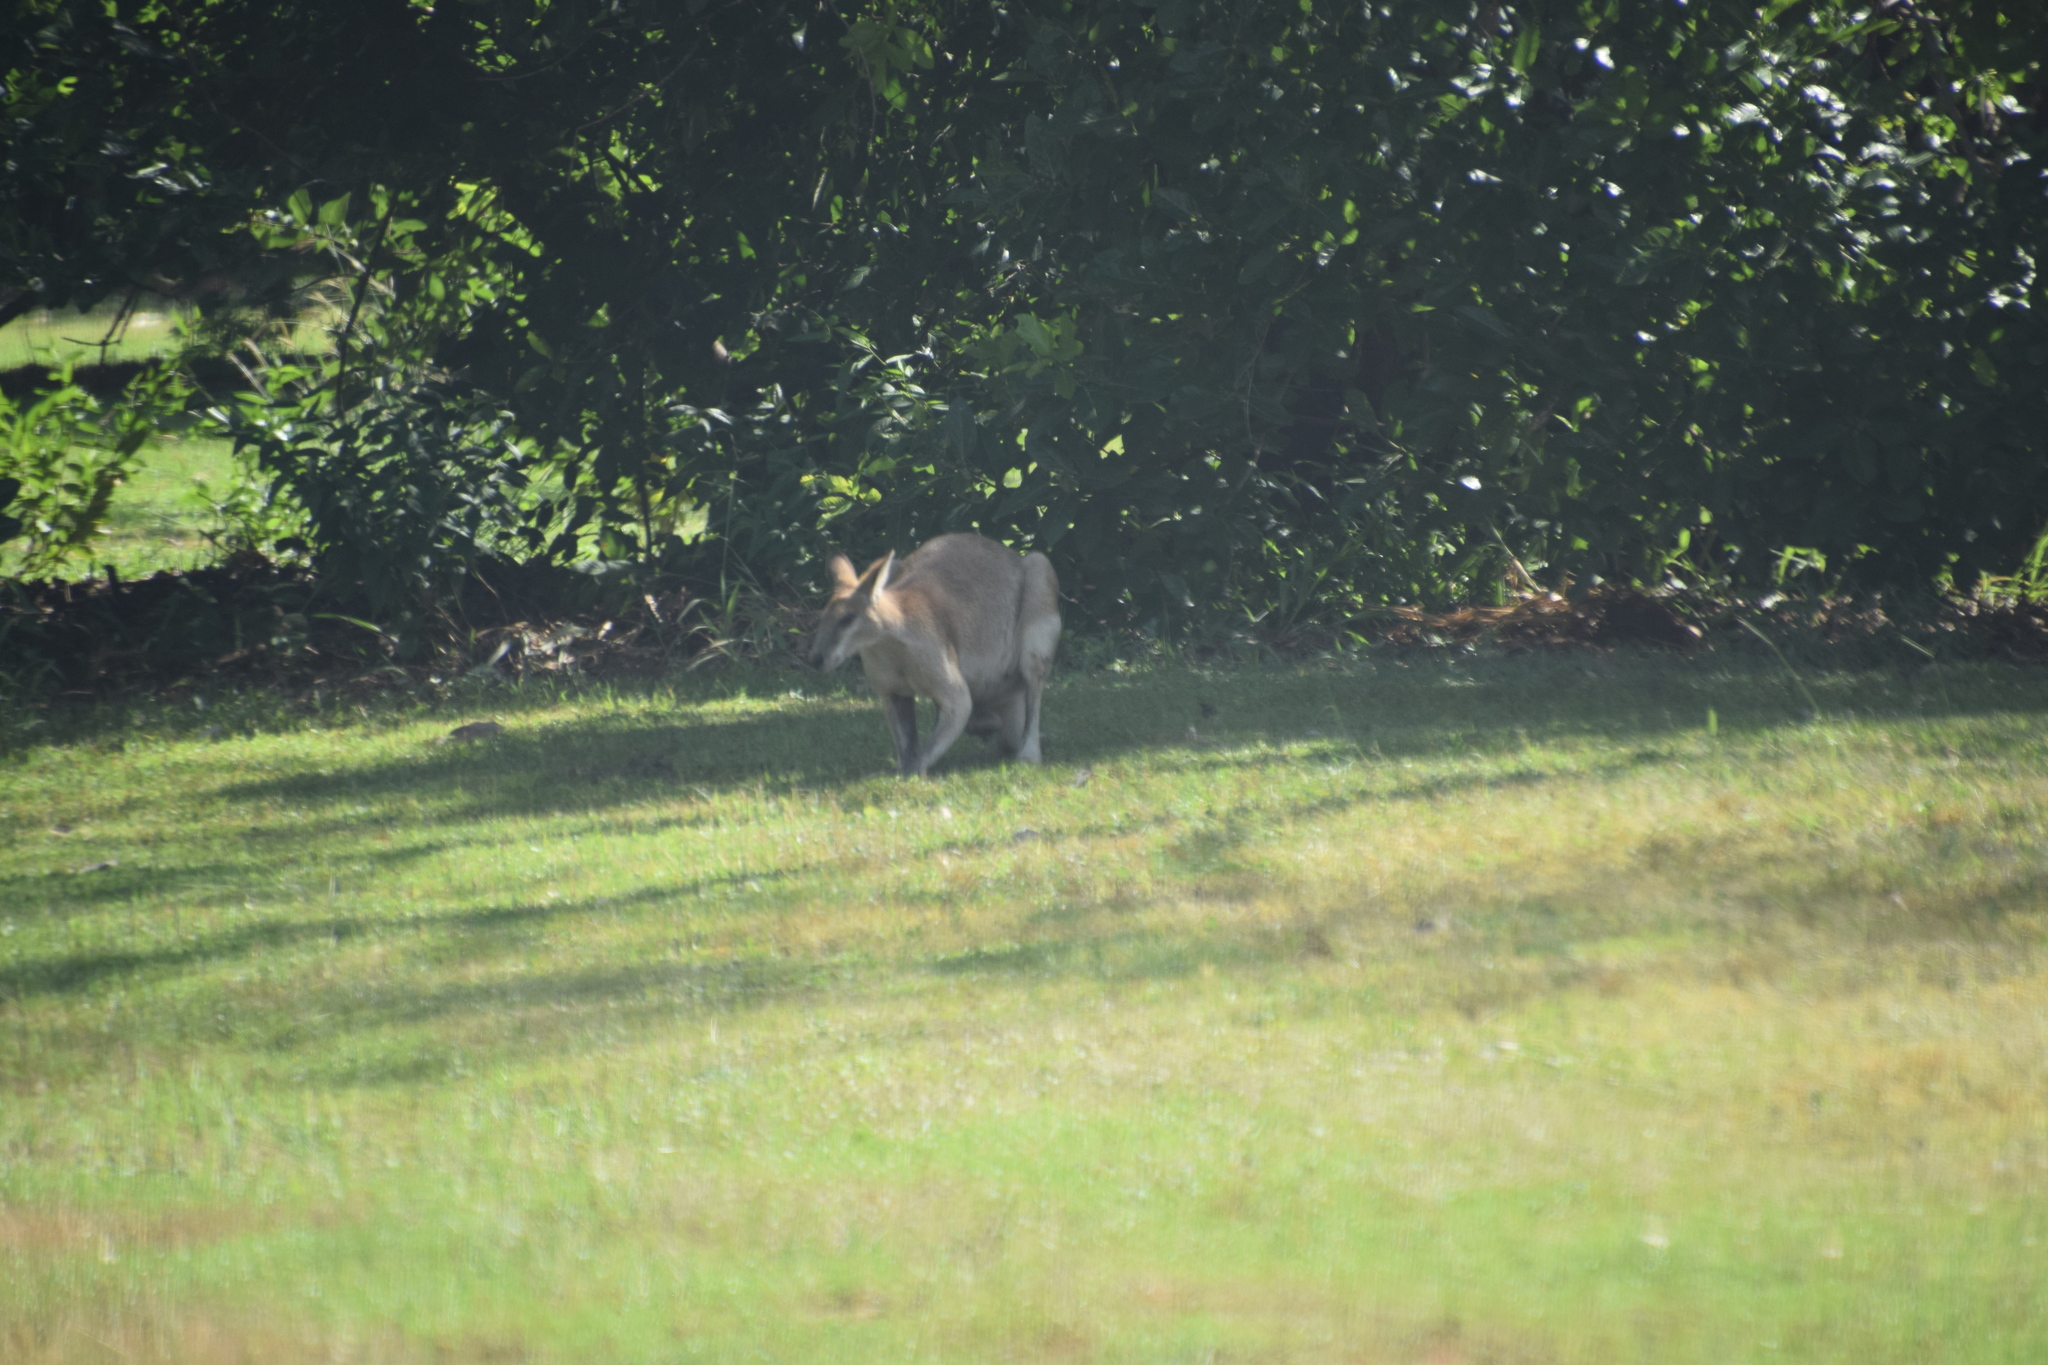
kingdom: Animalia
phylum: Chordata
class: Mammalia
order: Diprotodontia
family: Macropodidae
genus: Macropus
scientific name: Macropus agilis
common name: Agile wallaby
